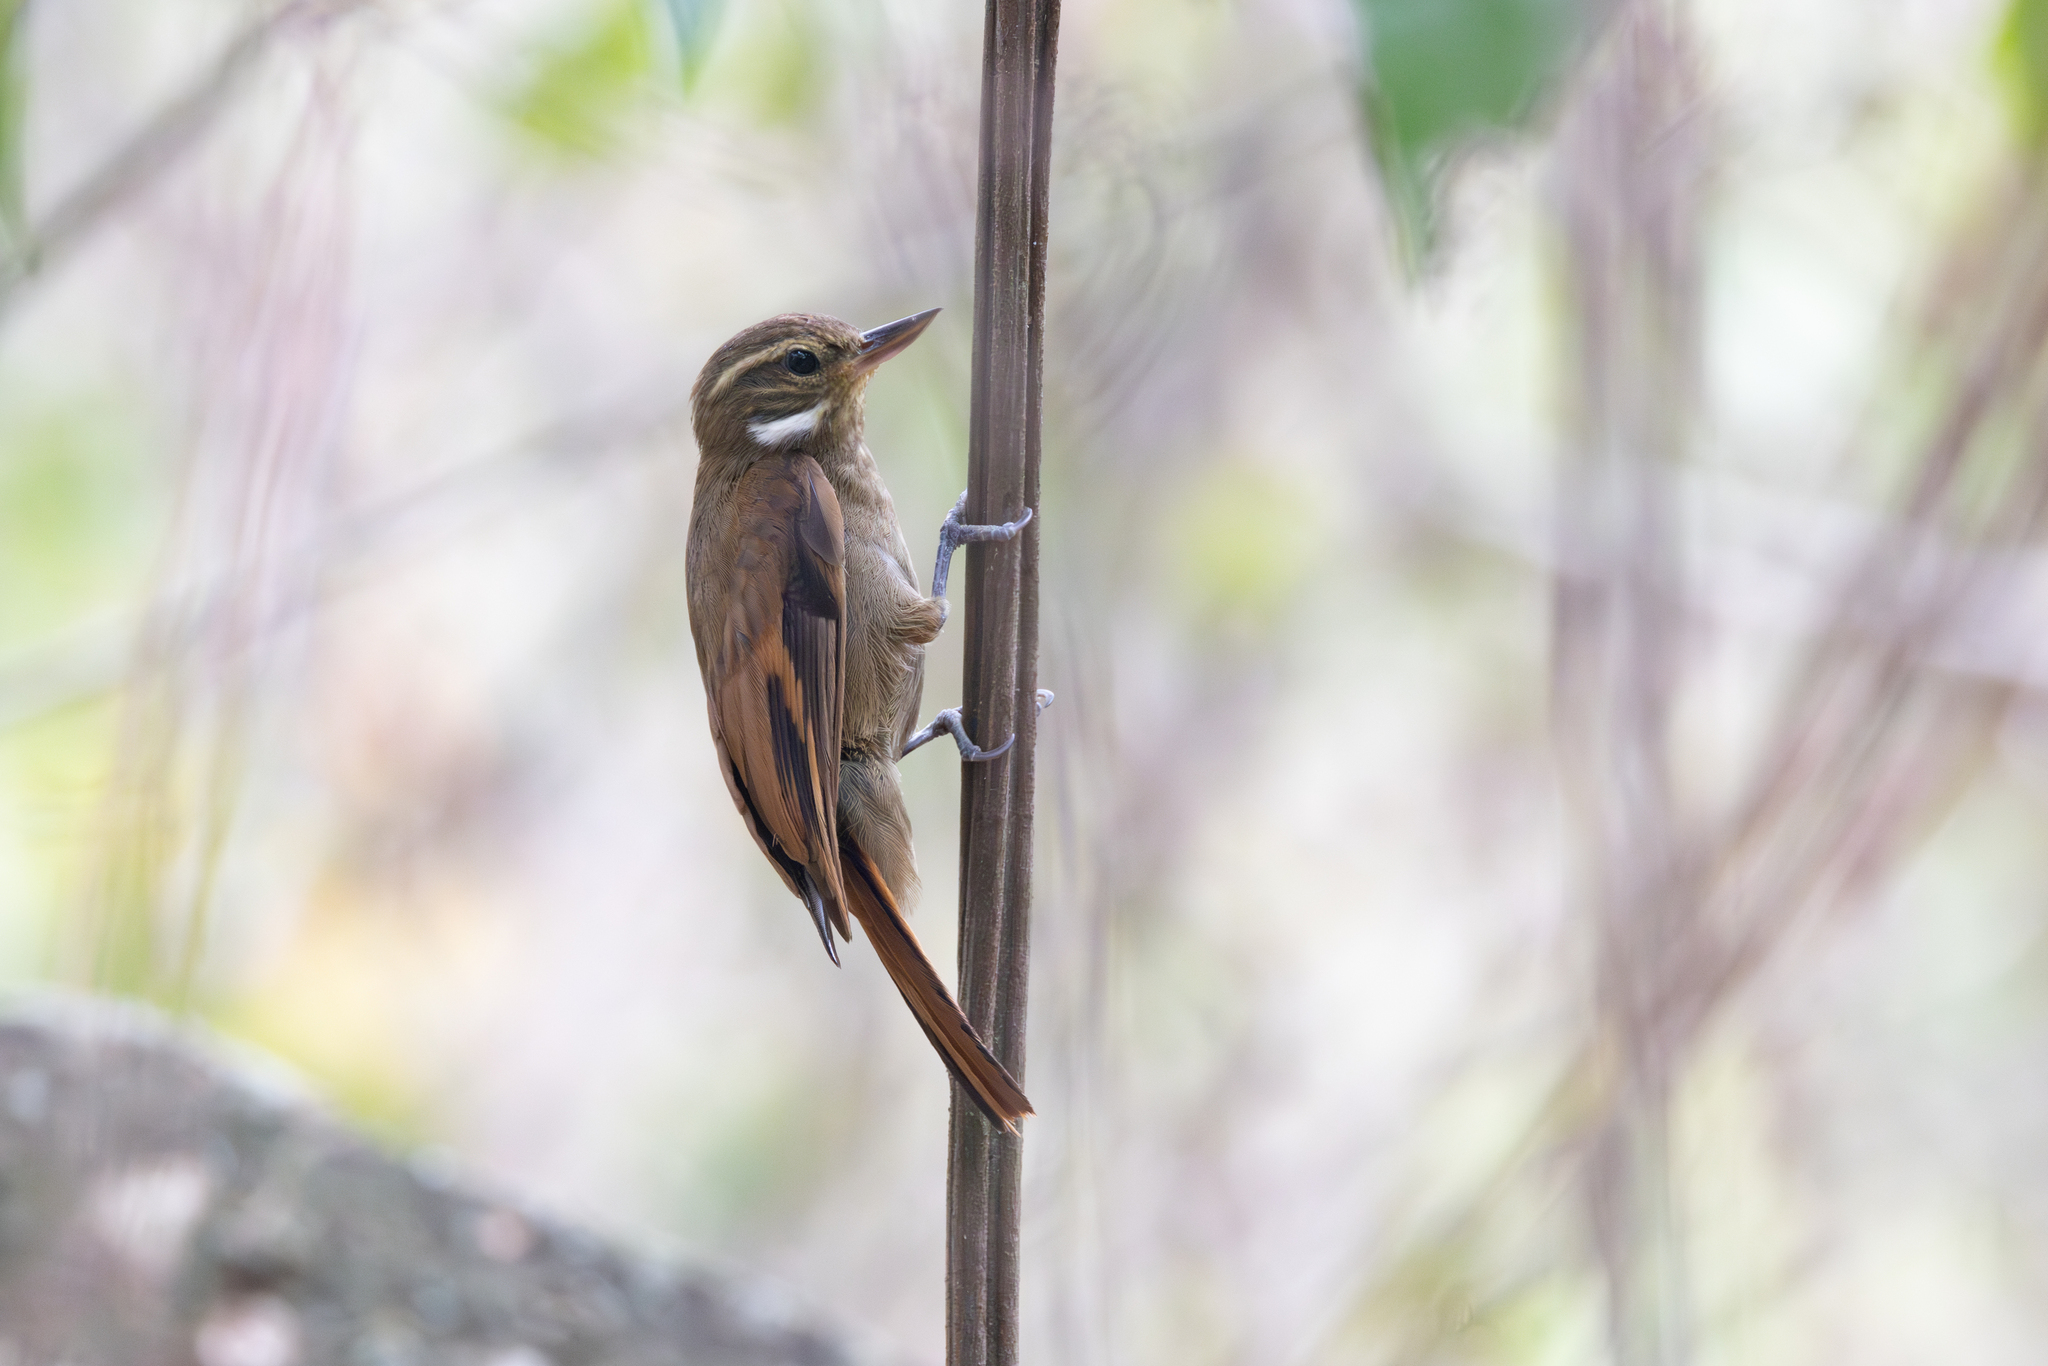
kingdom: Animalia
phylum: Chordata
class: Aves
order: Passeriformes
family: Furnariidae
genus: Xenops
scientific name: Xenops minutus
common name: Plain xenops
